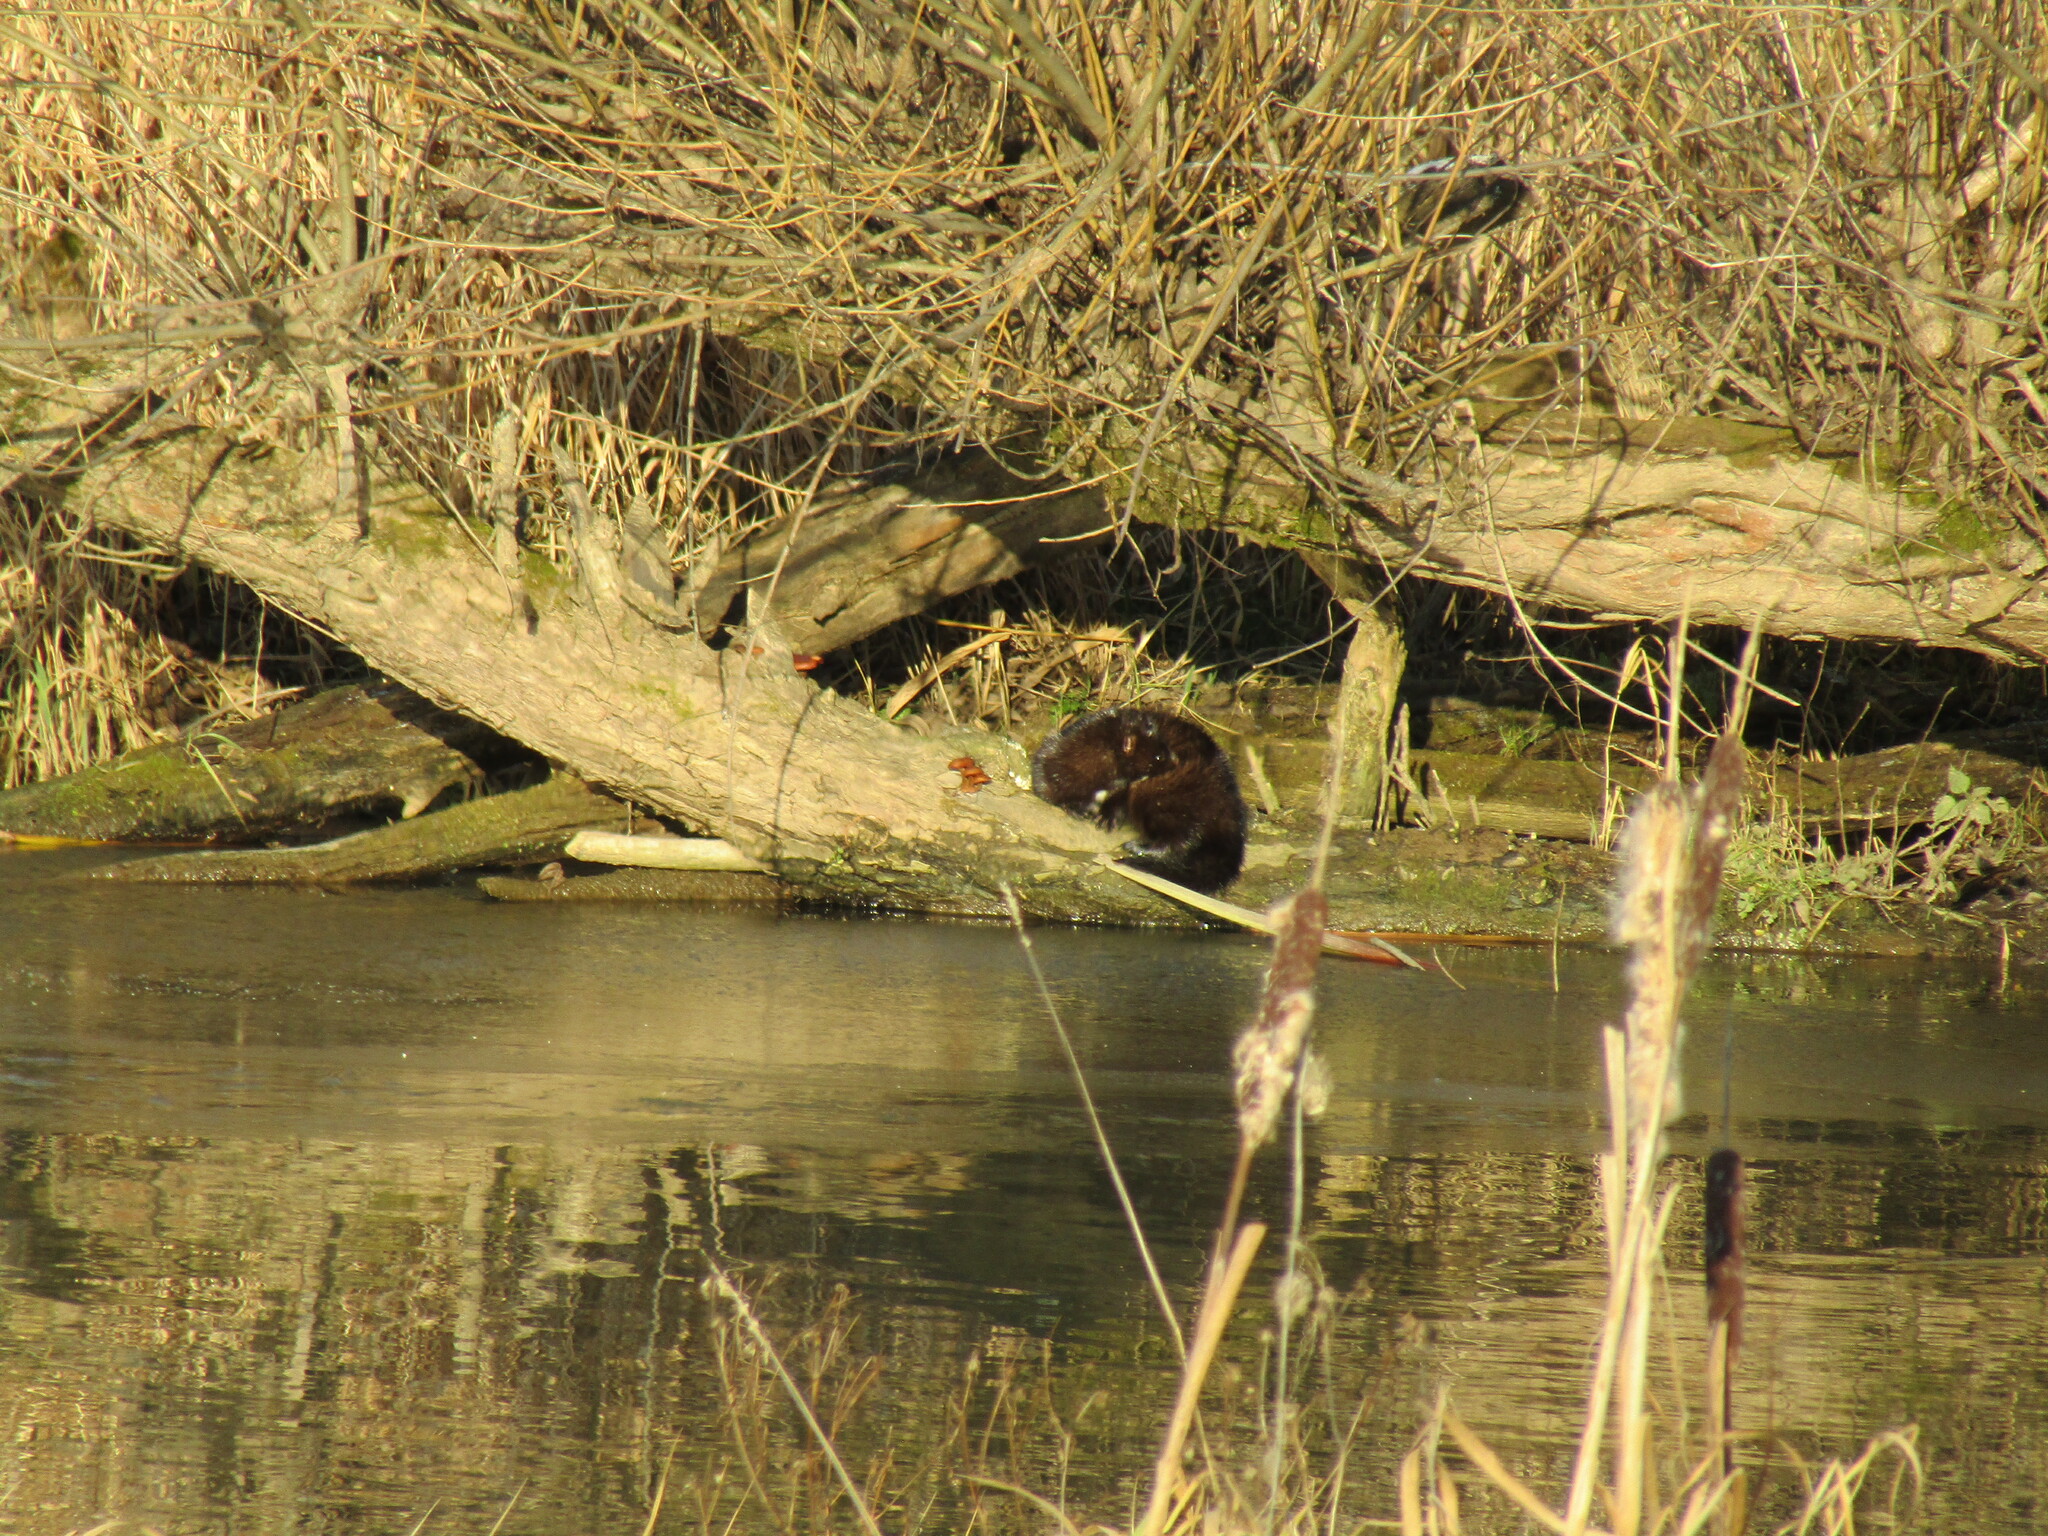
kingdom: Animalia
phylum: Chordata
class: Mammalia
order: Carnivora
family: Mustelidae
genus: Mustela
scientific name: Mustela
